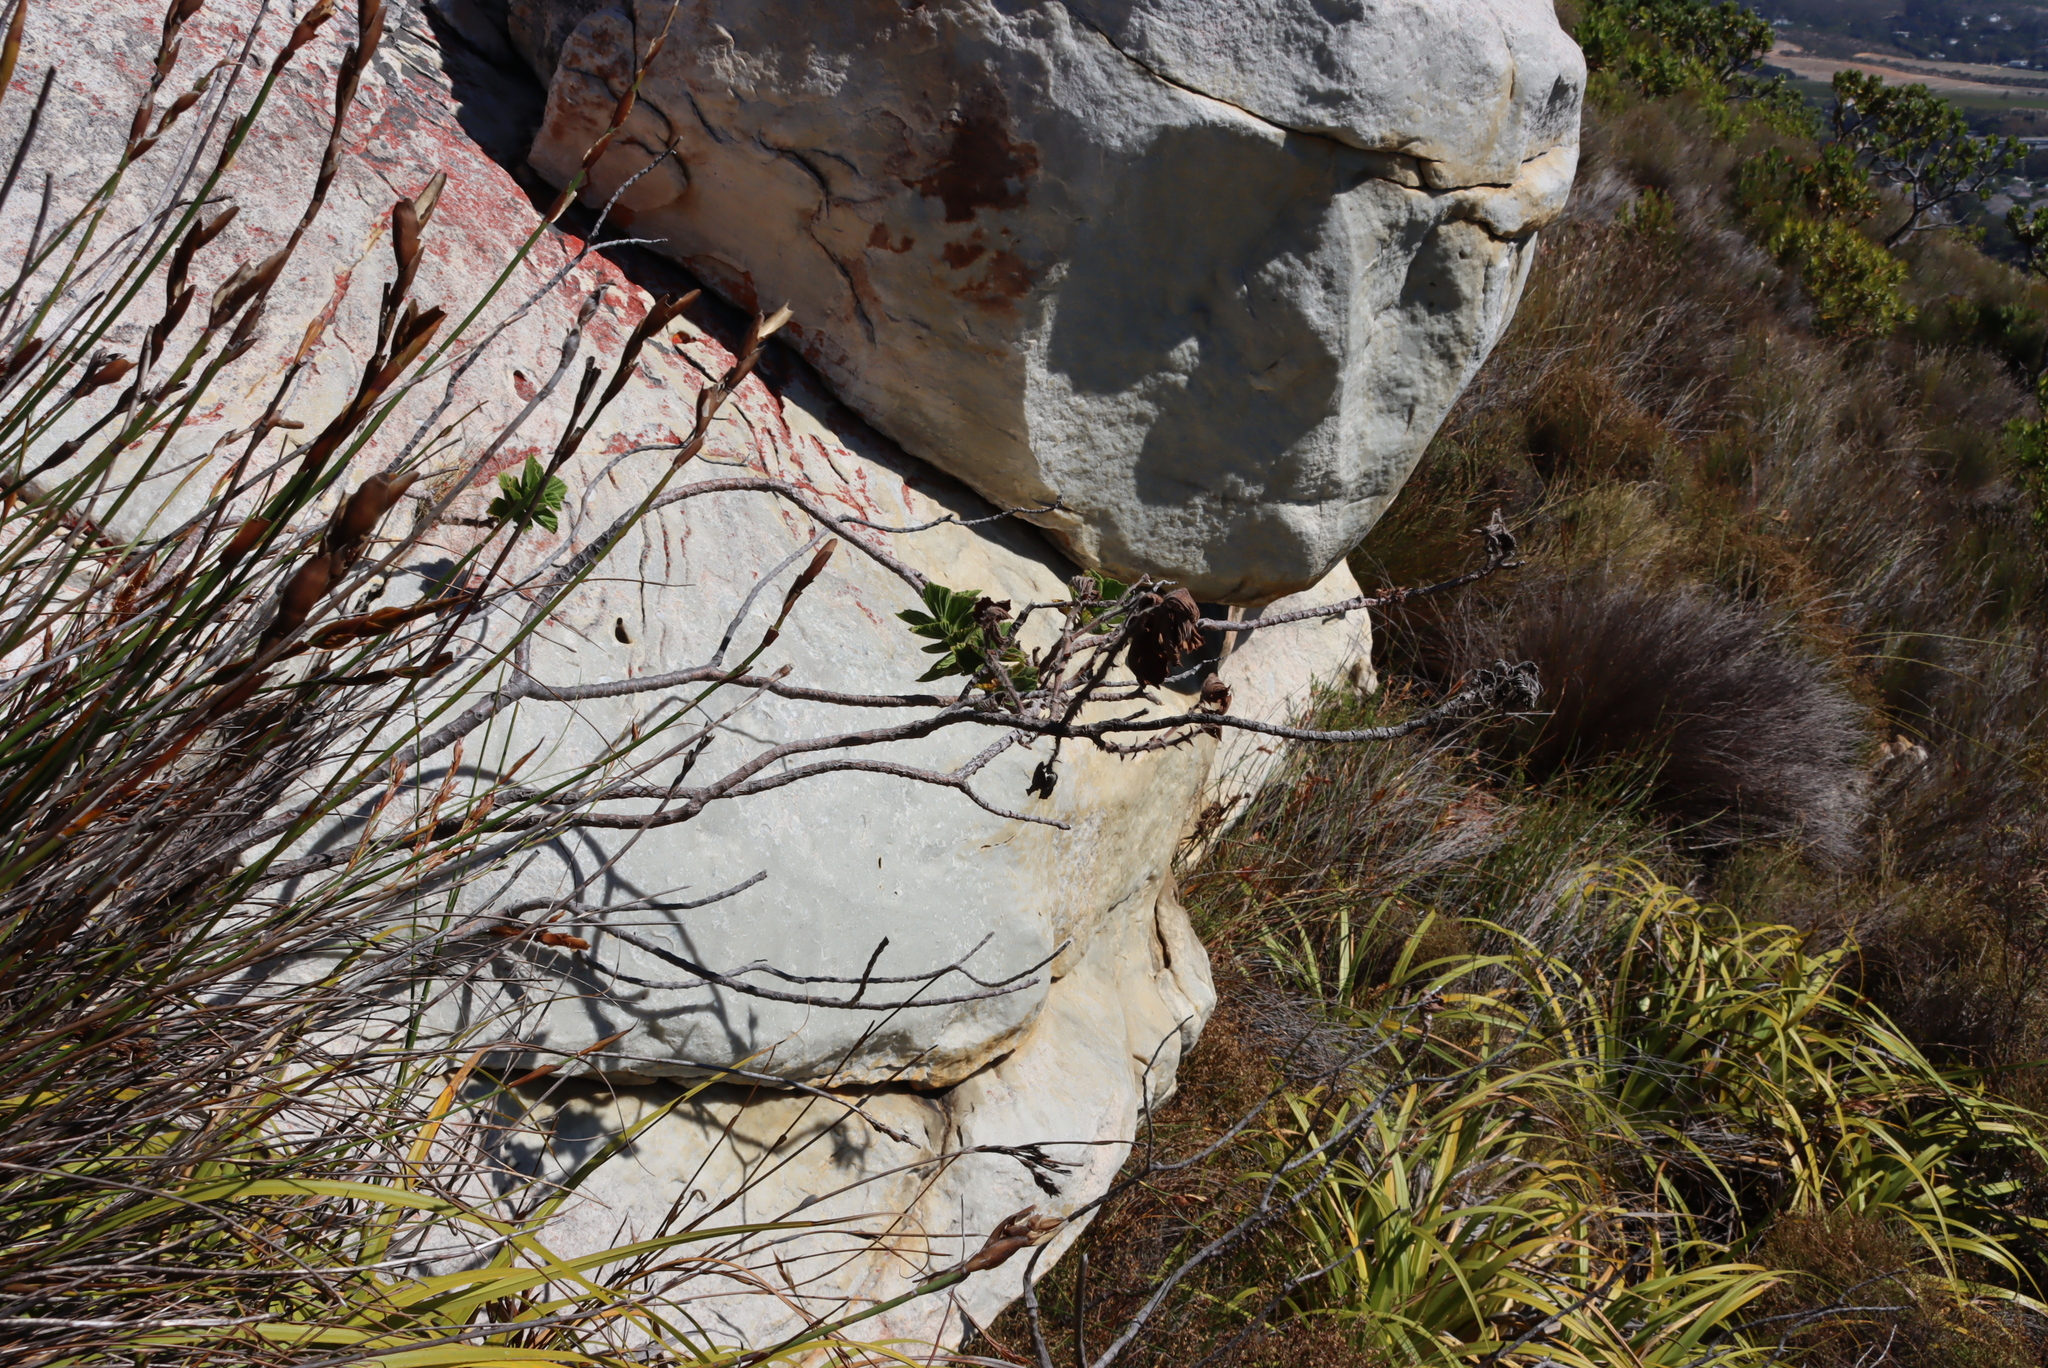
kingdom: Plantae
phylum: Tracheophyta
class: Magnoliopsida
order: Geraniales
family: Geraniaceae
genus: Pelargonium
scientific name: Pelargonium cucullatum
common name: Tree pelargonium
